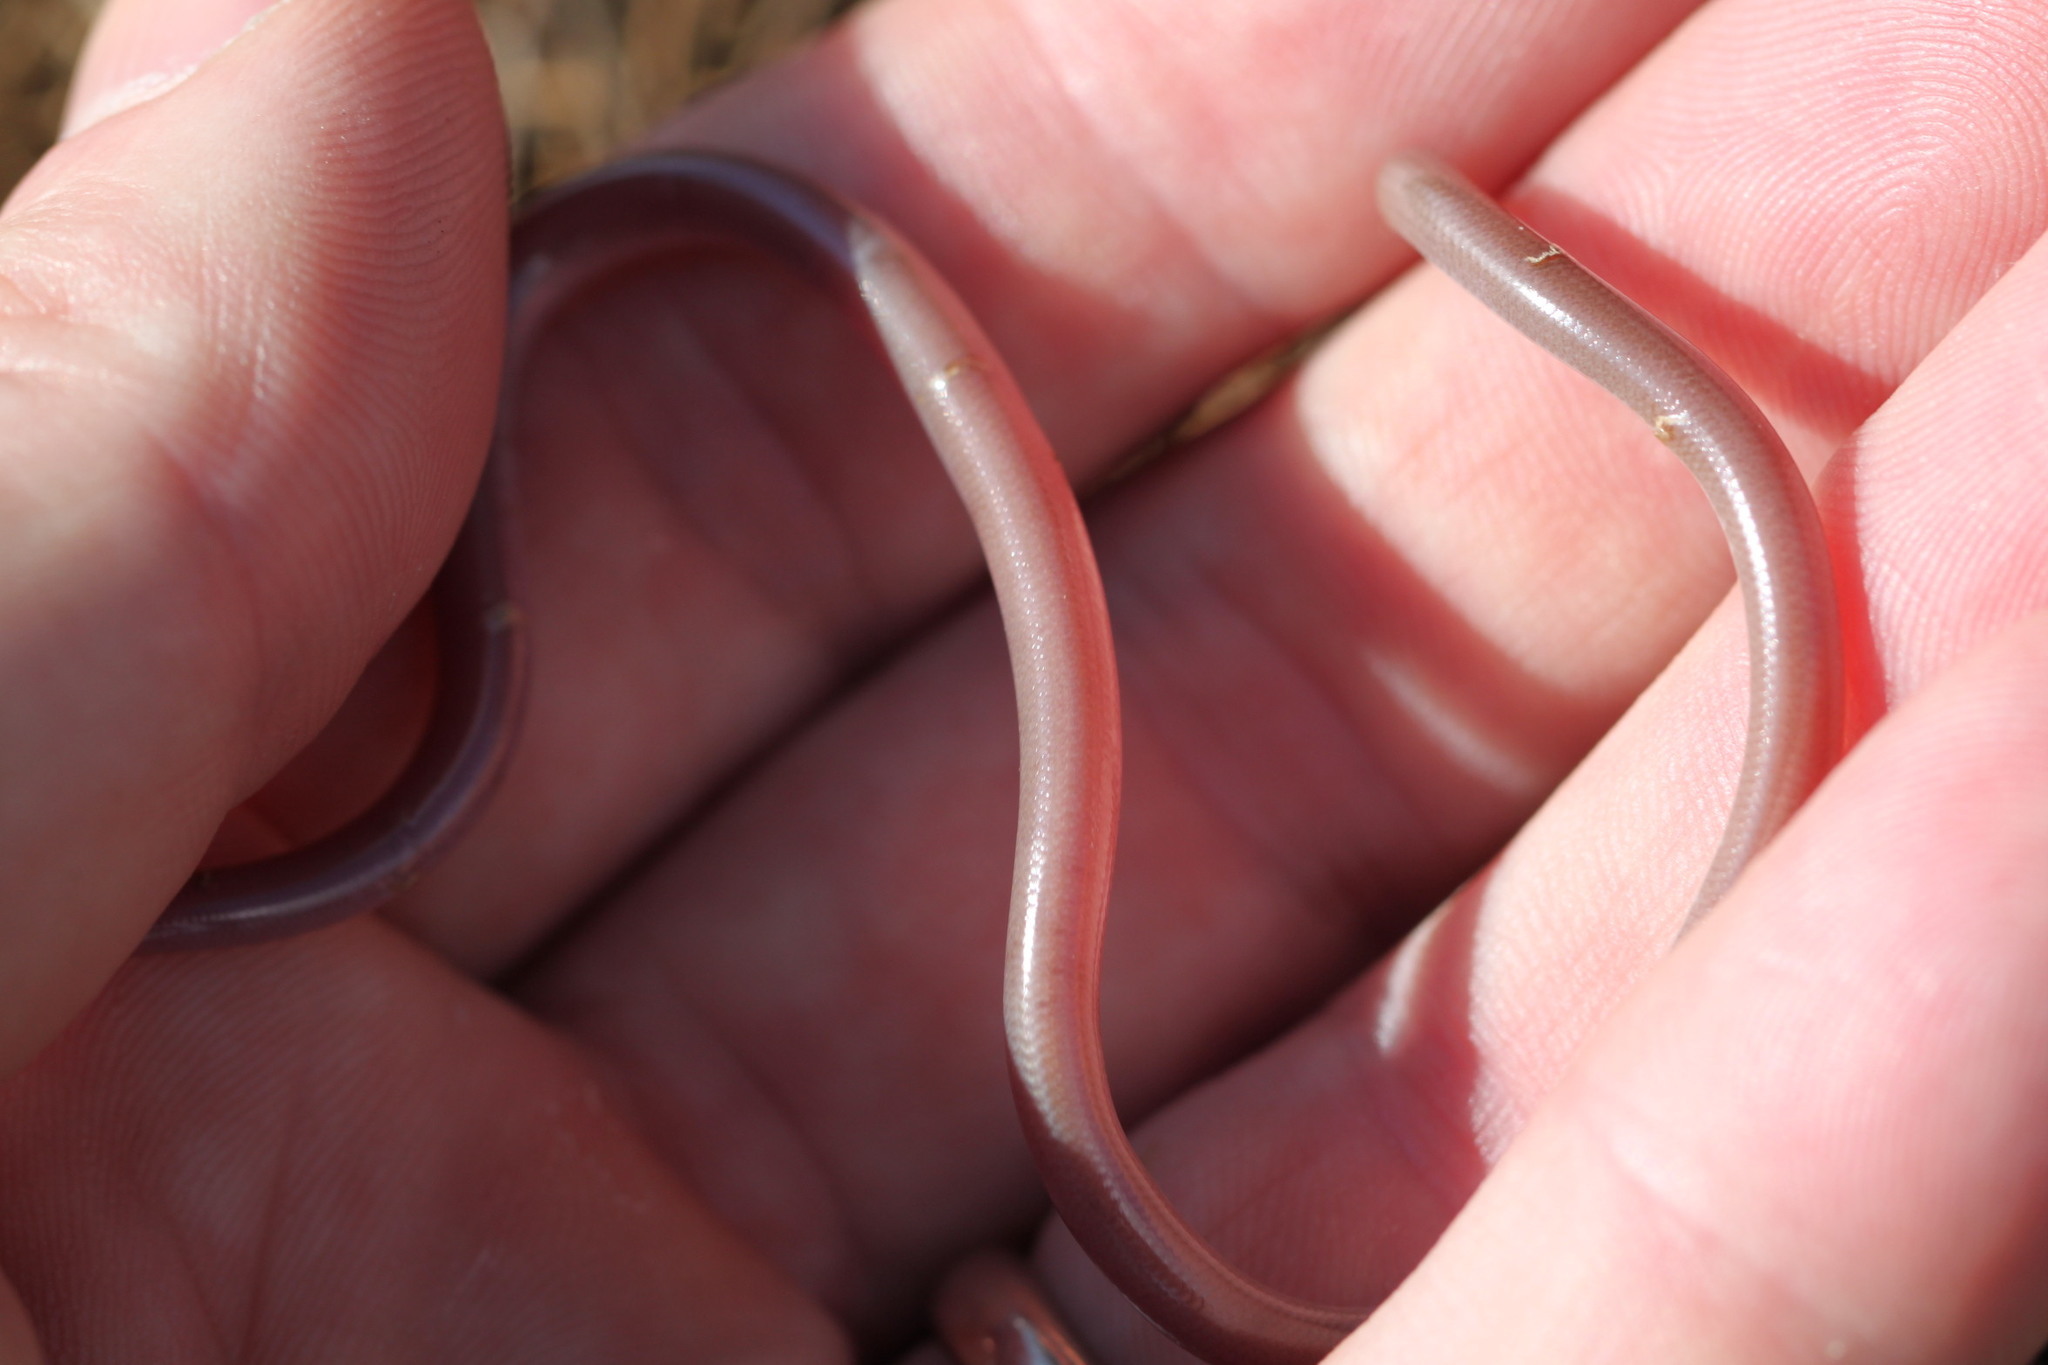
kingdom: Animalia
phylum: Chordata
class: Squamata
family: Typhlopidae
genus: Xerotyphlops
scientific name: Xerotyphlops vermicularis
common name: Eurasian blind snake
